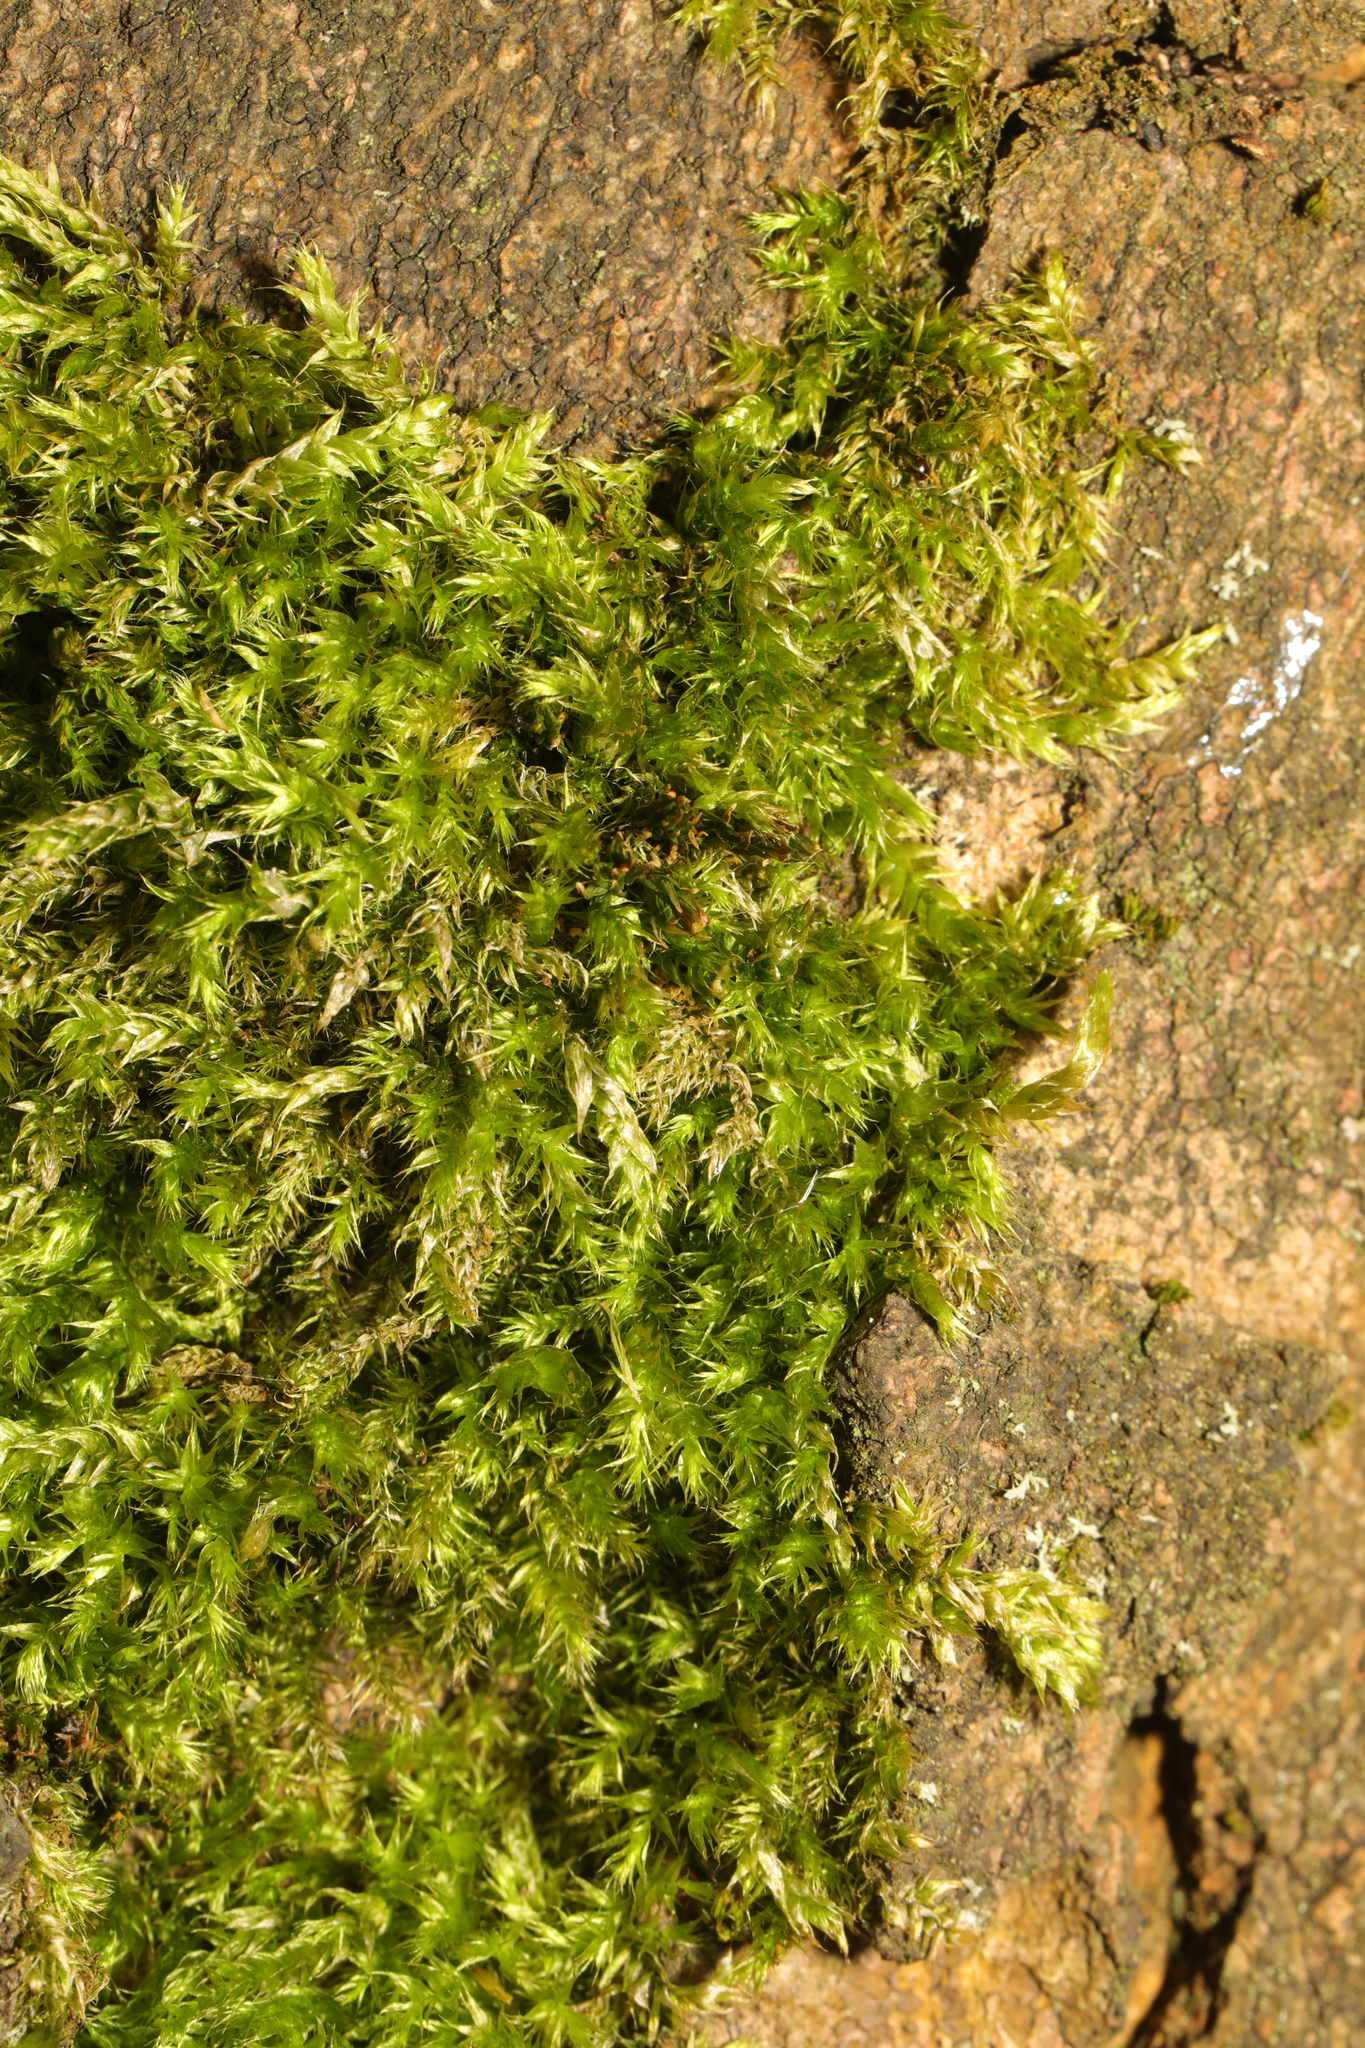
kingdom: Plantae
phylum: Bryophyta
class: Bryopsida
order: Hypnales
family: Hypnaceae
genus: Hypnum
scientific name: Hypnum cupressiforme
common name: Cypress-leaved plait-moss
